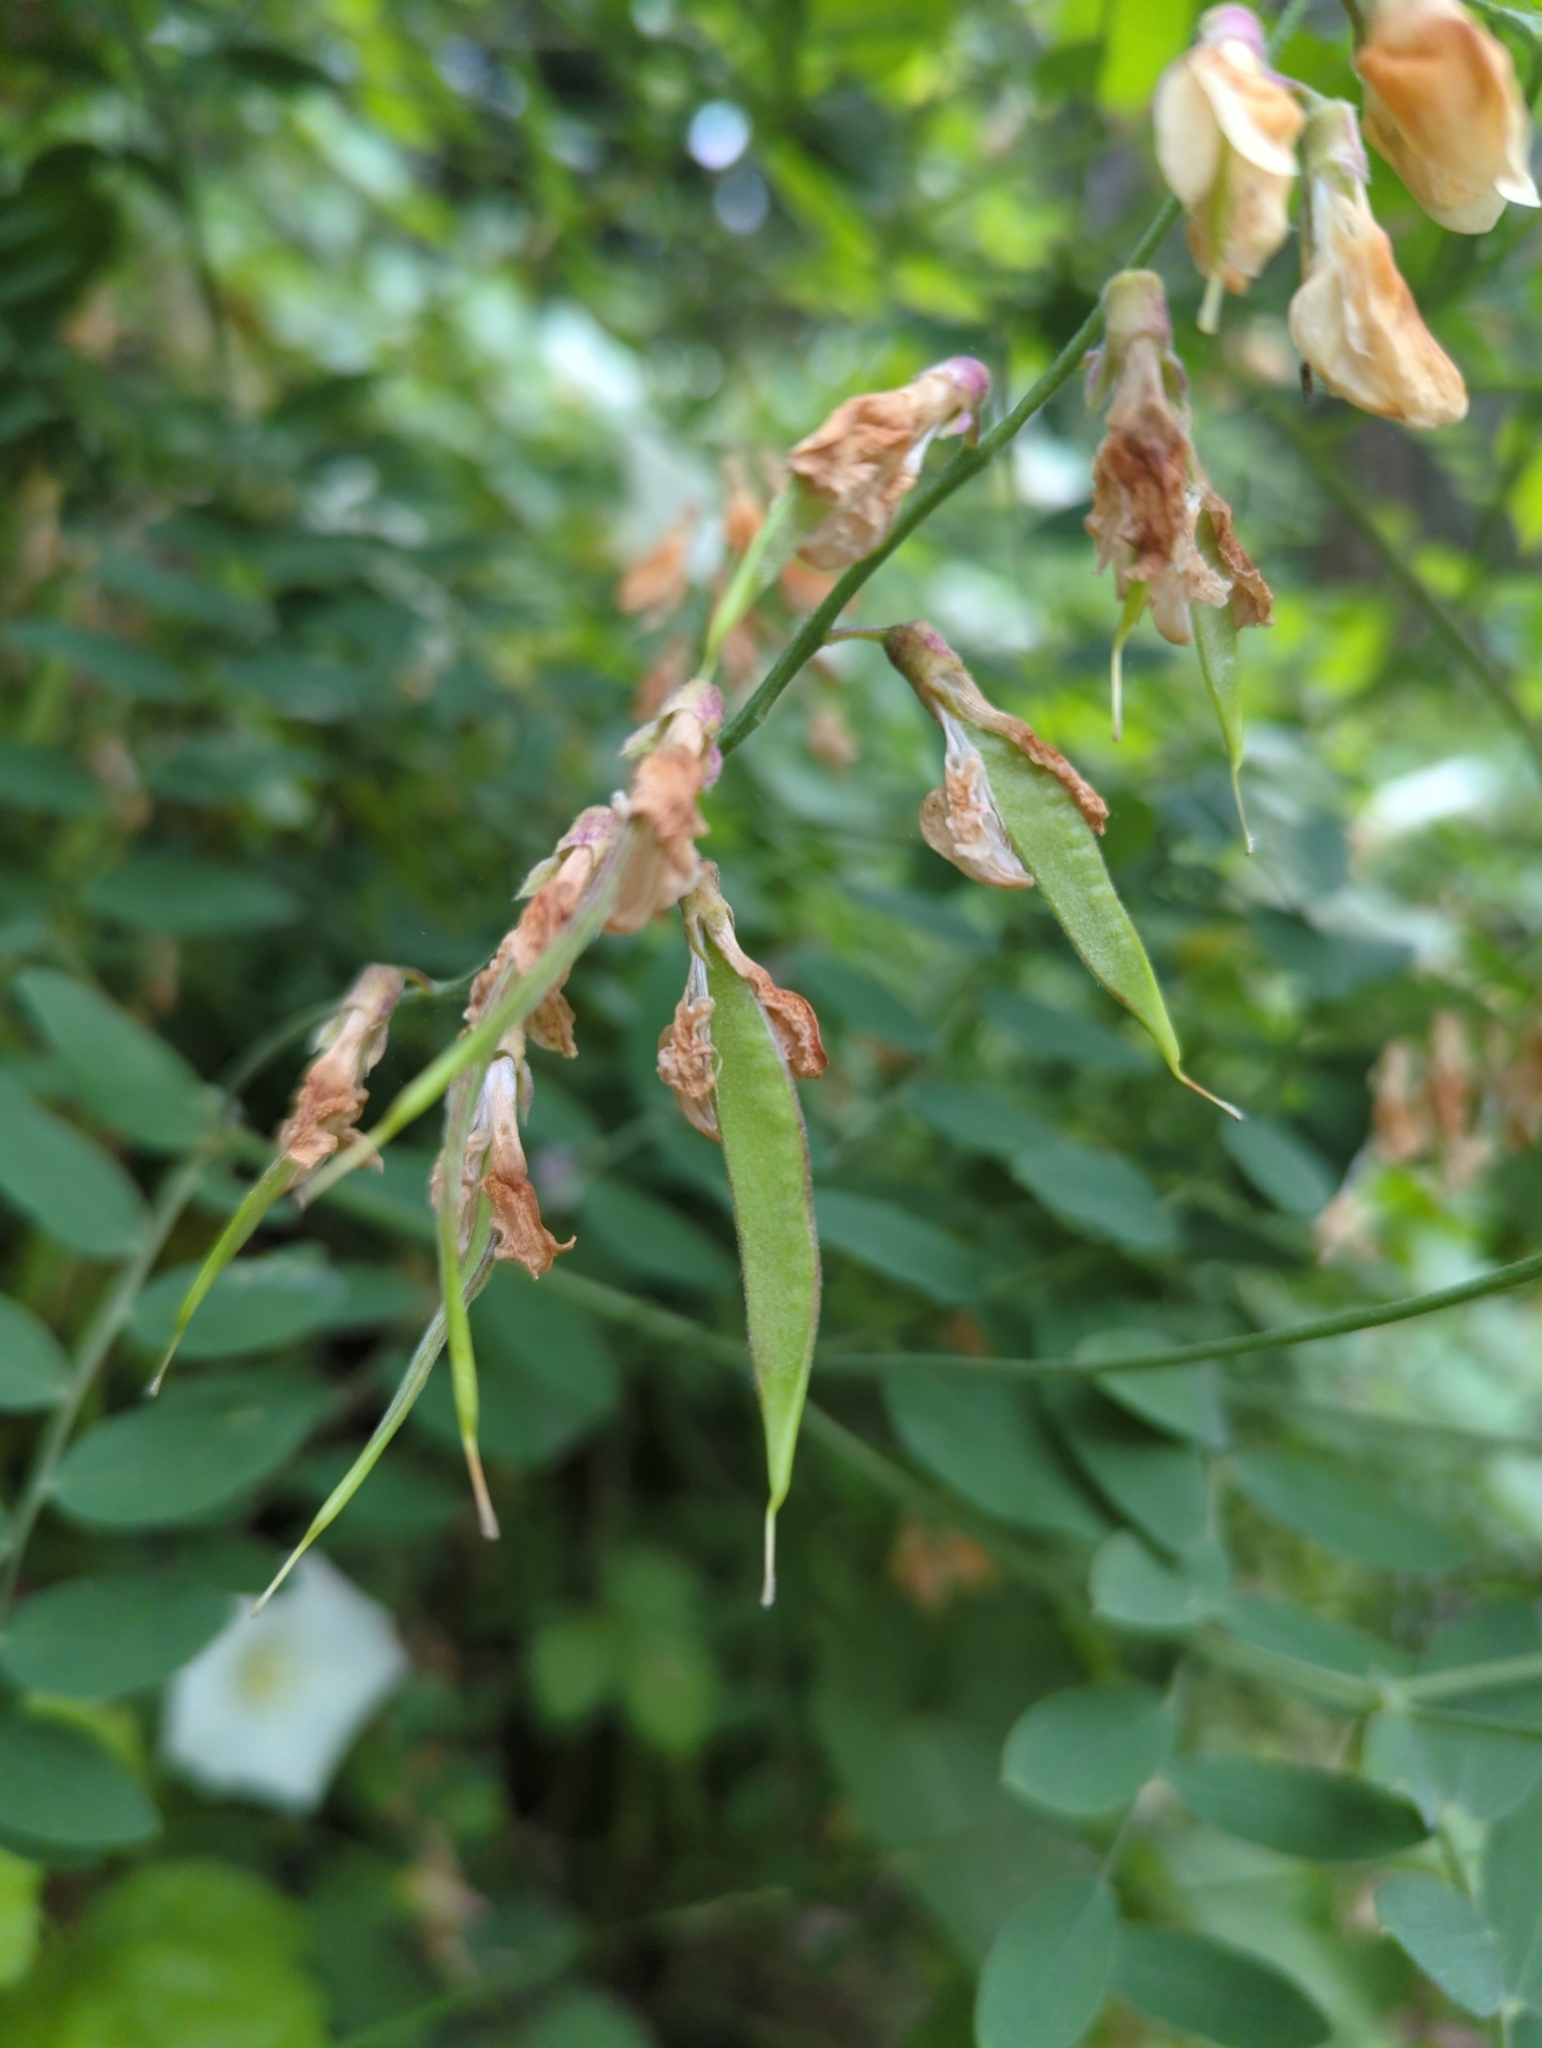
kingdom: Plantae
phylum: Tracheophyta
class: Magnoliopsida
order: Fabales
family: Fabaceae
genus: Lathyrus
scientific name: Lathyrus vestitus
